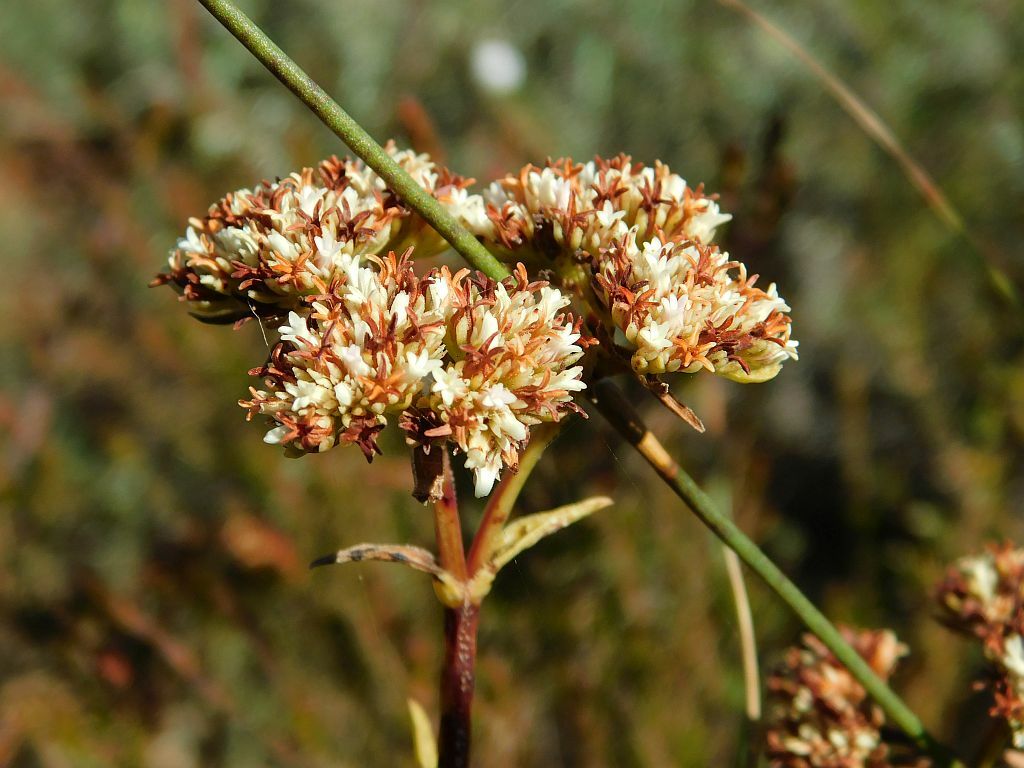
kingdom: Plantae
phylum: Tracheophyta
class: Magnoliopsida
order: Saxifragales
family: Crassulaceae
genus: Crassula
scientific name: Crassula subulata
